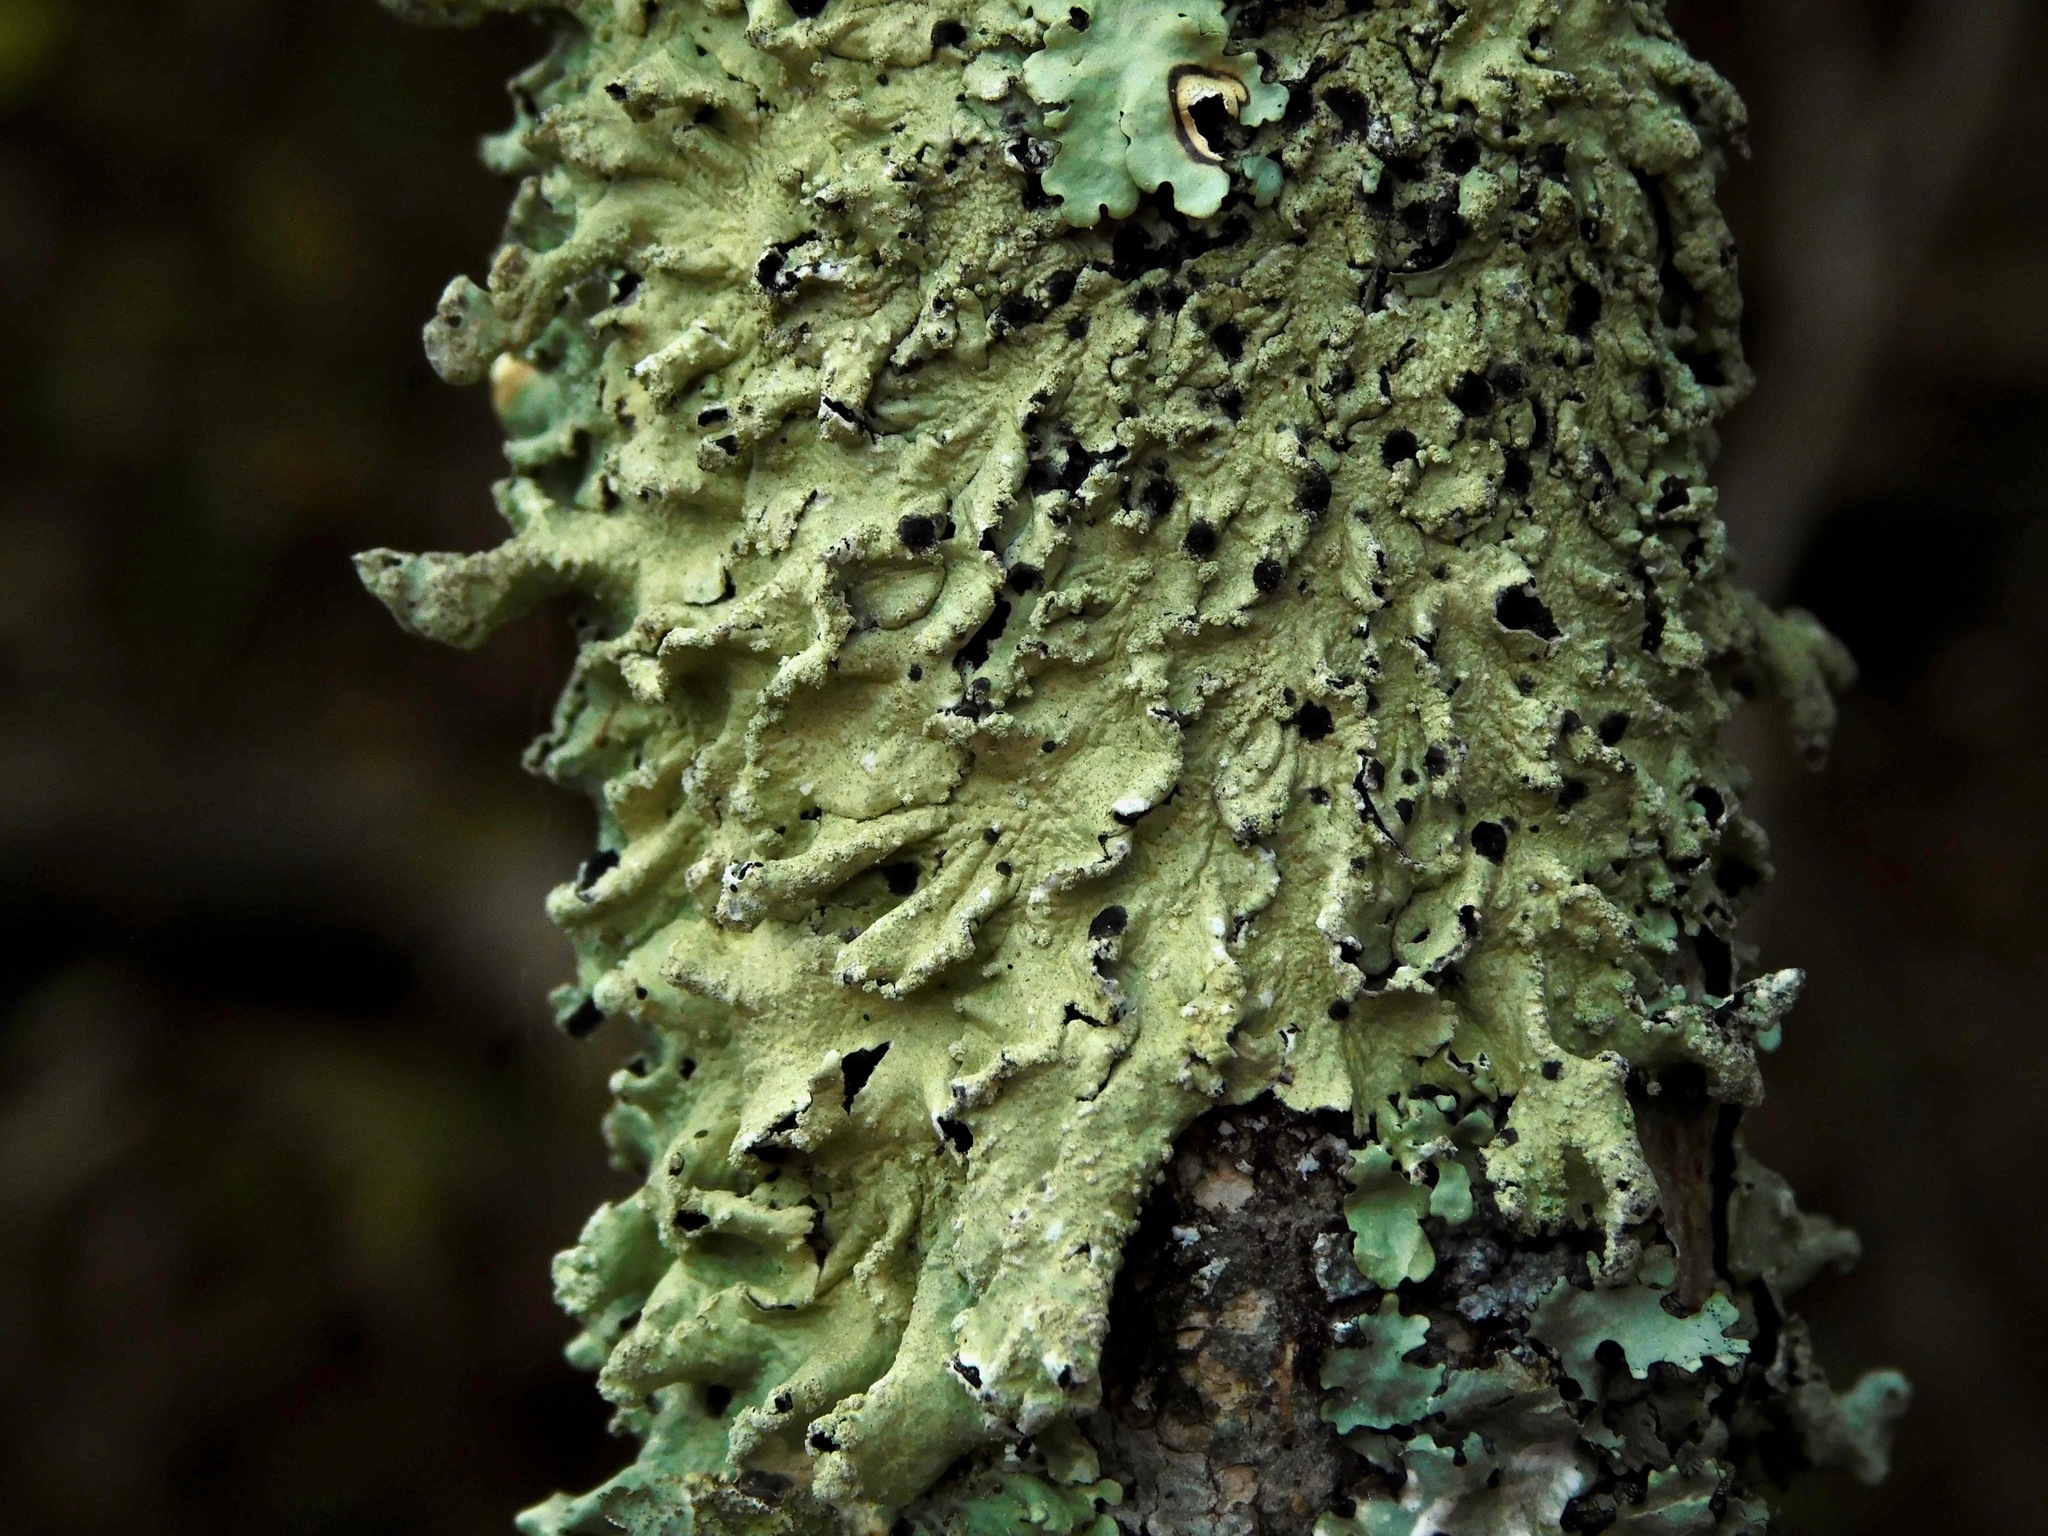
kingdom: Fungi
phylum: Ascomycota
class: Lecanoromycetes
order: Lecanorales
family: Parmeliaceae
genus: Flavoparmelia
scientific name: Flavoparmelia caperata
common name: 40-mile per hour lichen
